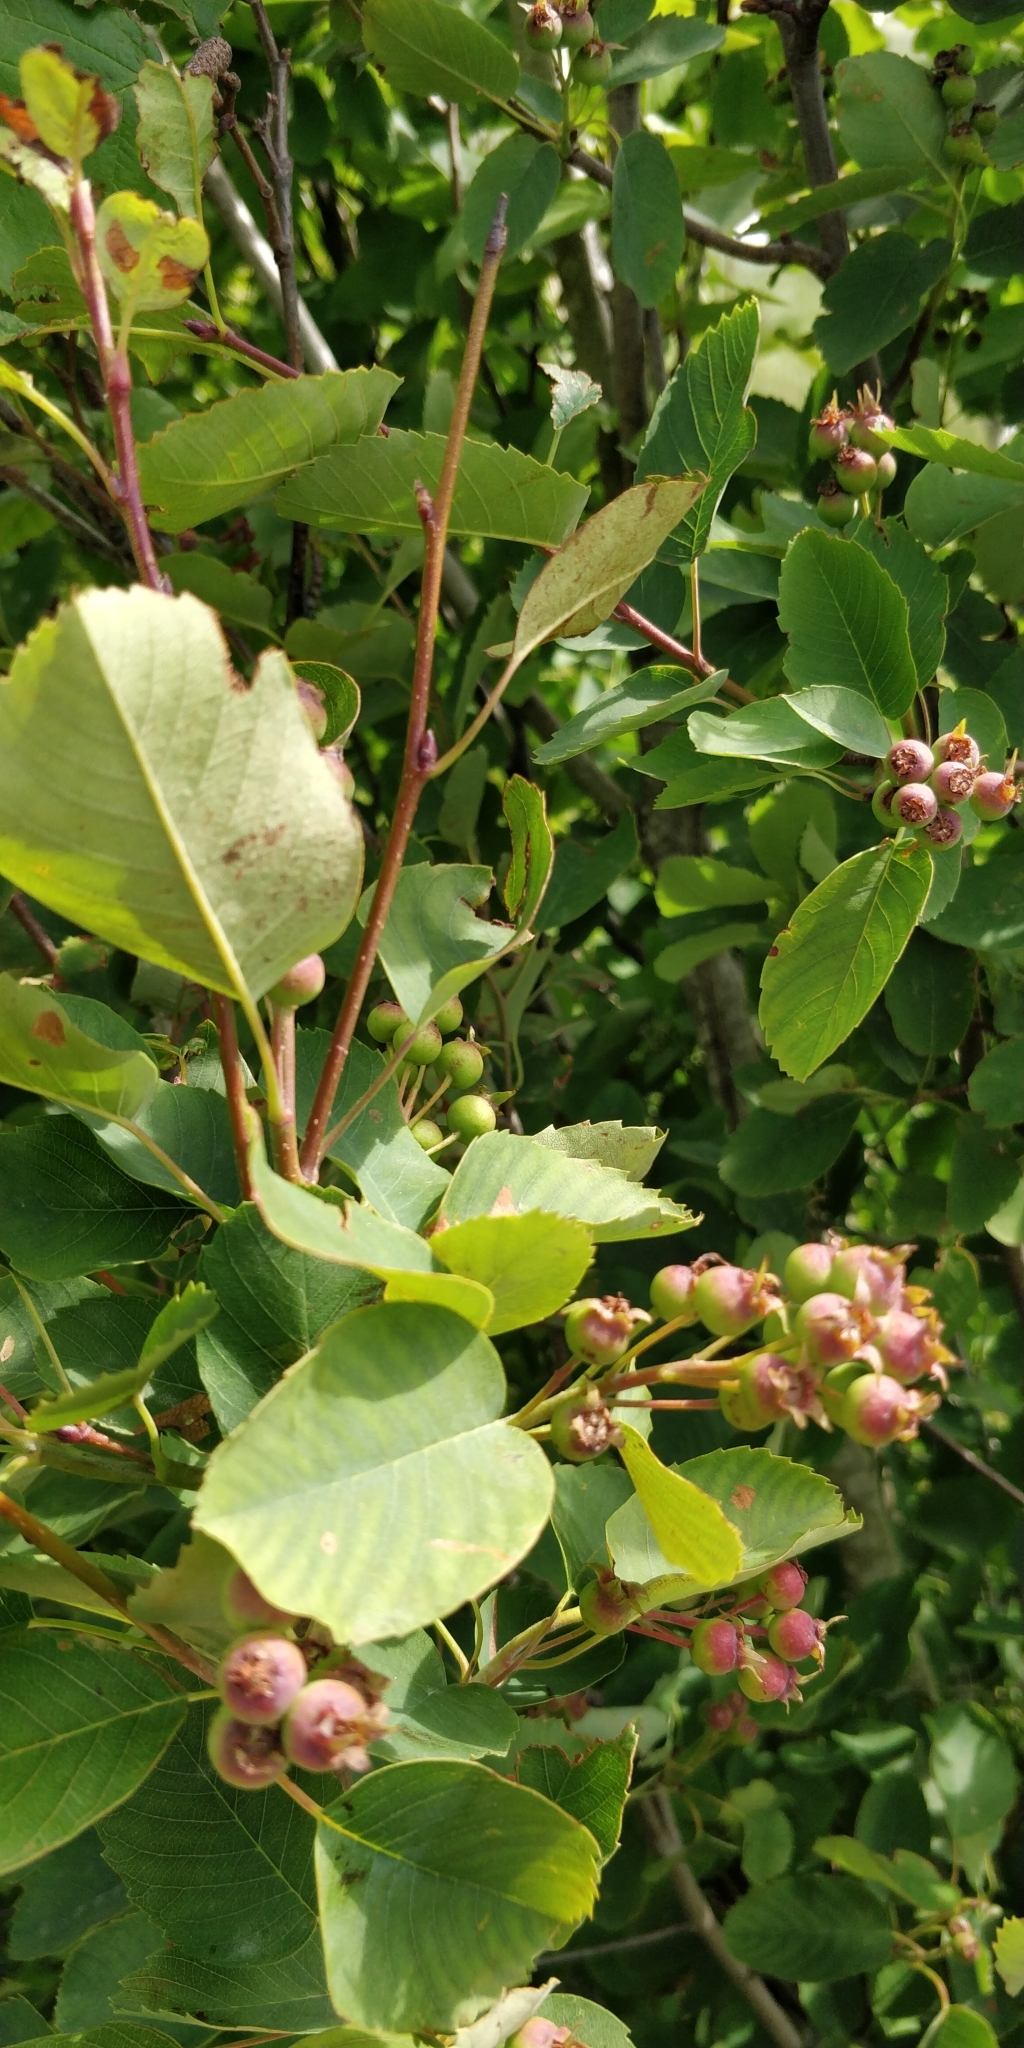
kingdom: Plantae
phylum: Tracheophyta
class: Magnoliopsida
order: Rosales
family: Rosaceae
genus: Amelanchier
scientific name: Amelanchier alnifolia
